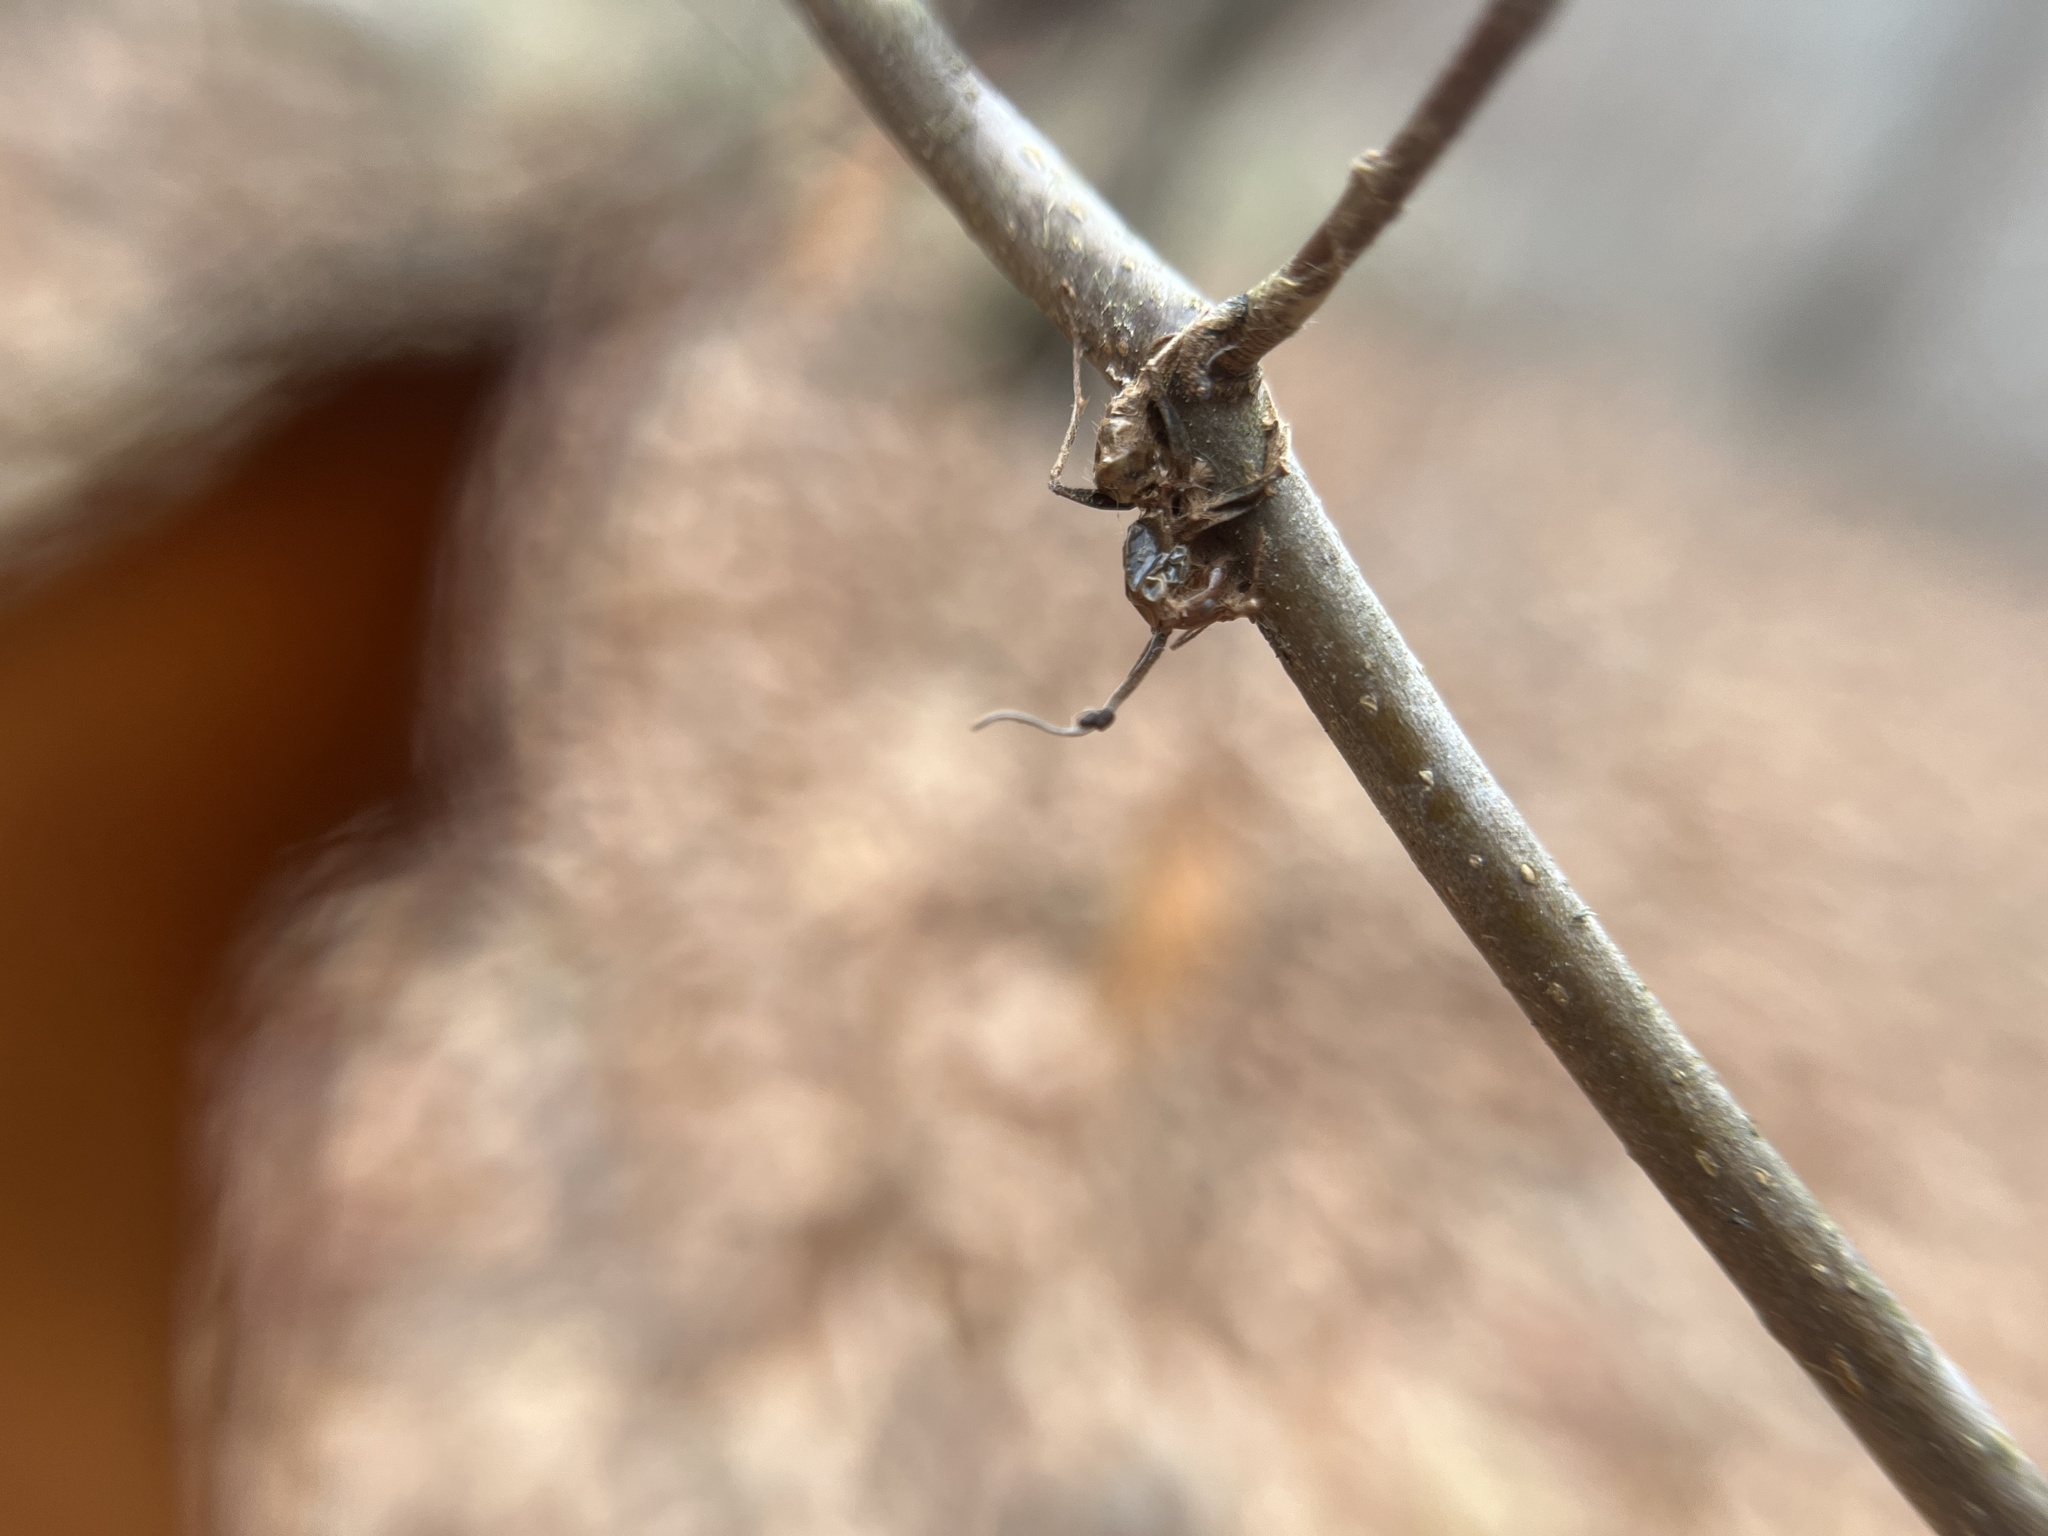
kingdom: Fungi
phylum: Ascomycota
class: Sordariomycetes
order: Hypocreales
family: Ophiocordycipitaceae
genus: Ophiocordyceps
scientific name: Ophiocordyceps kimflemingiae
